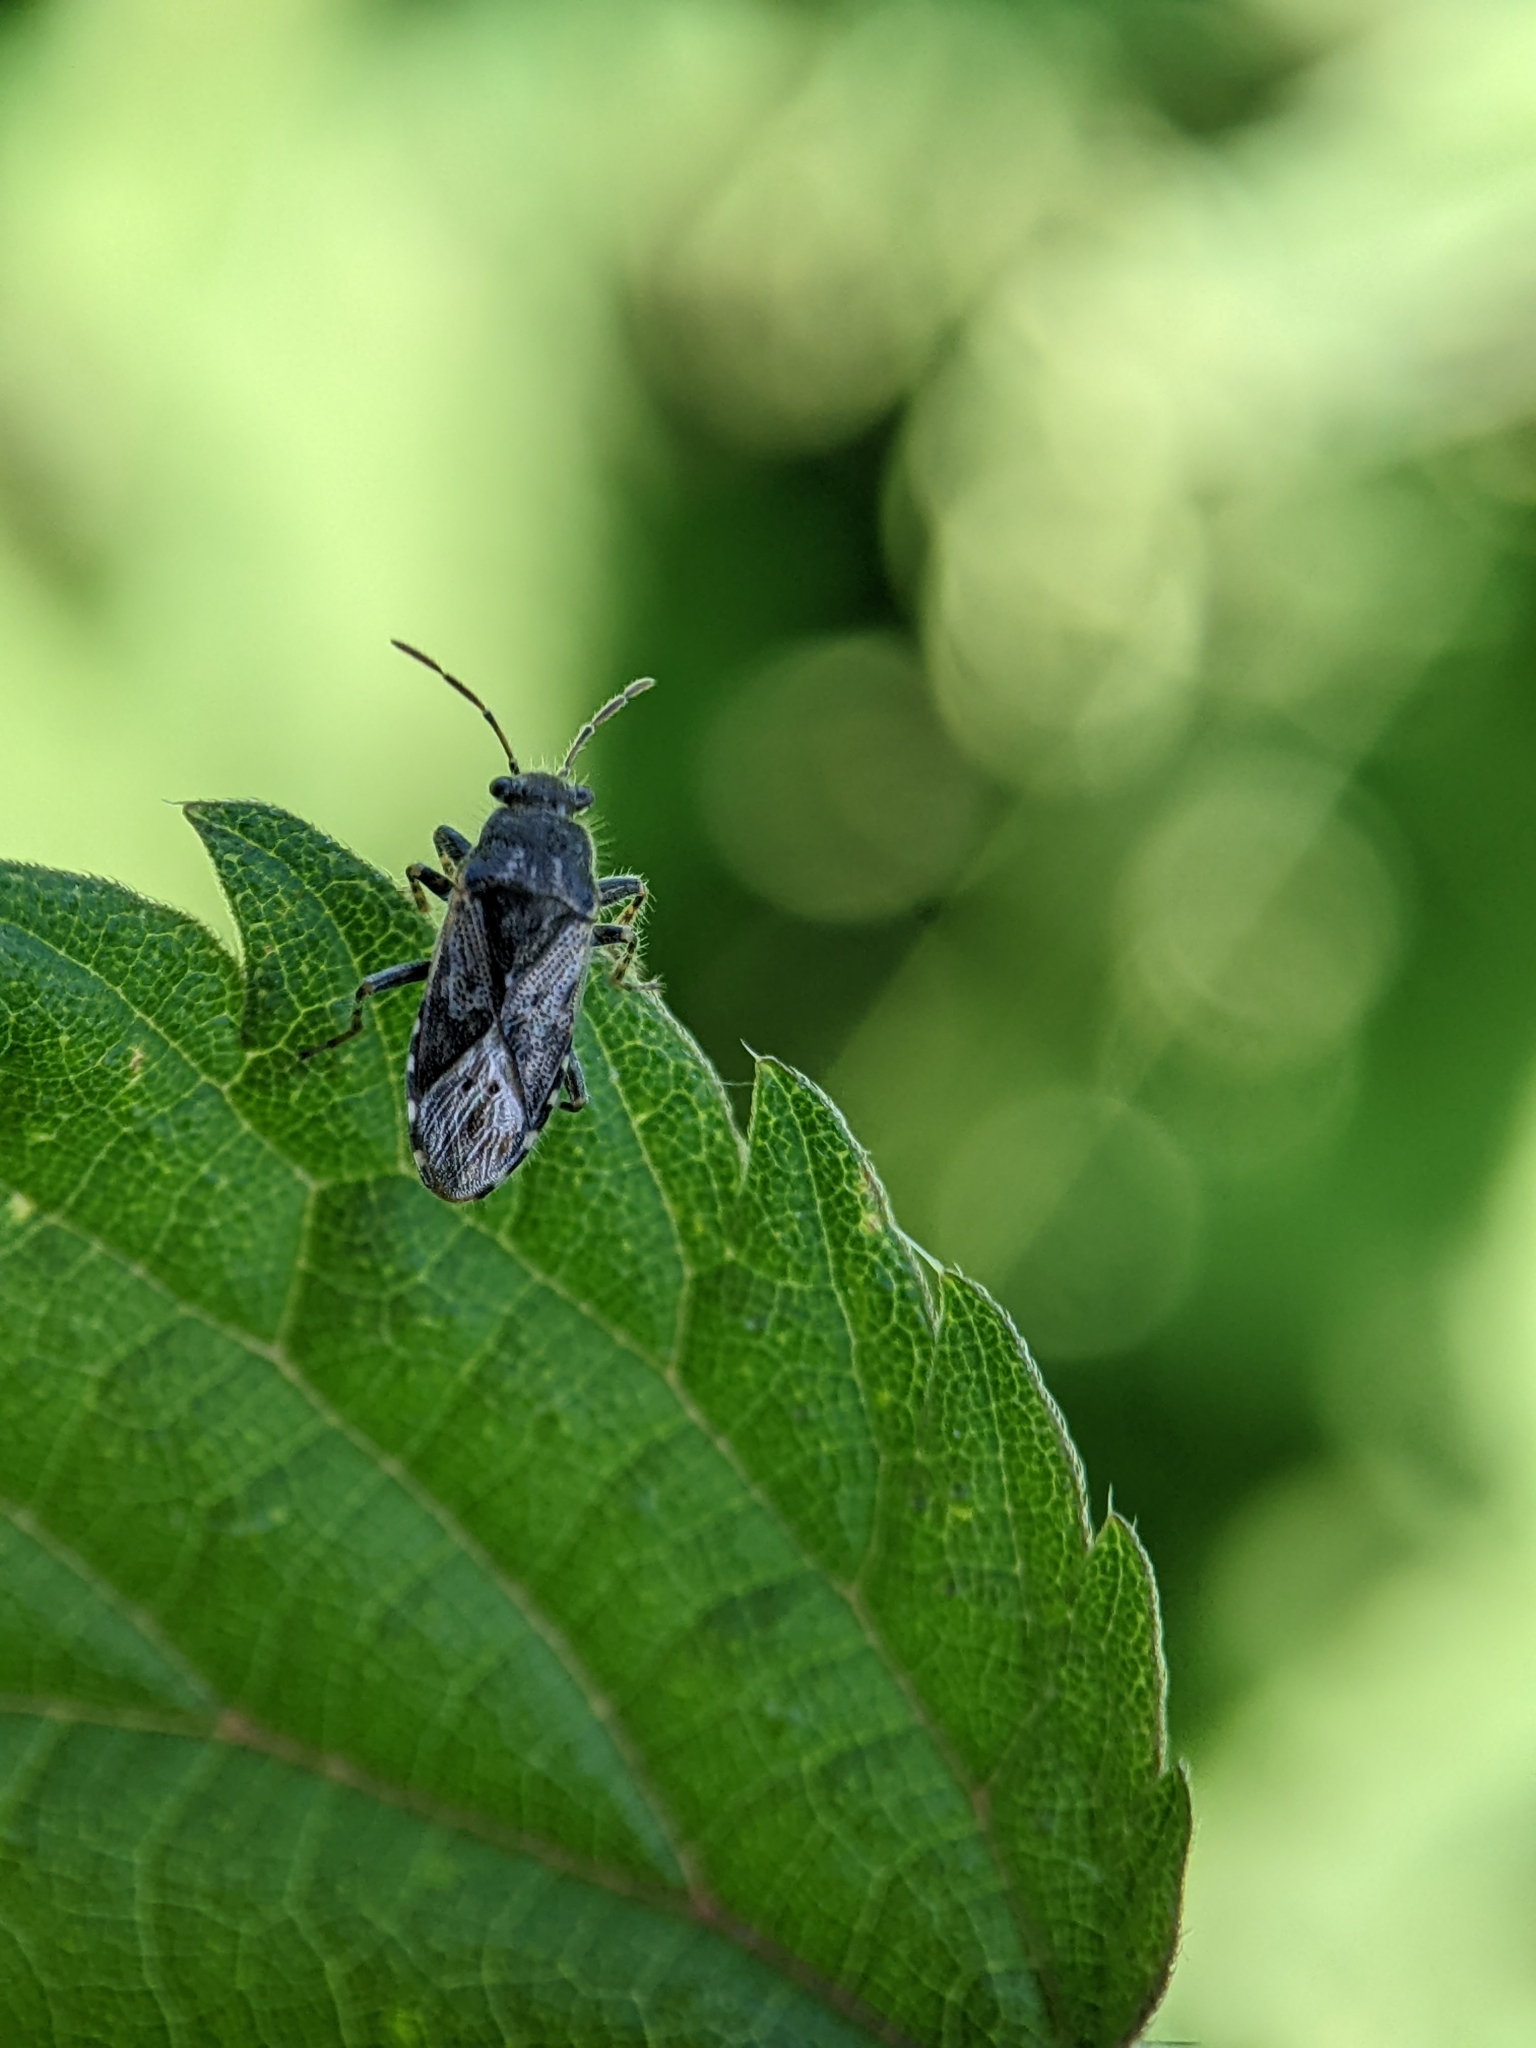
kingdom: Animalia
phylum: Arthropoda
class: Insecta
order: Hemiptera
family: Heterogastridae
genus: Heterogaster
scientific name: Heterogaster urticae
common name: Seed bug
